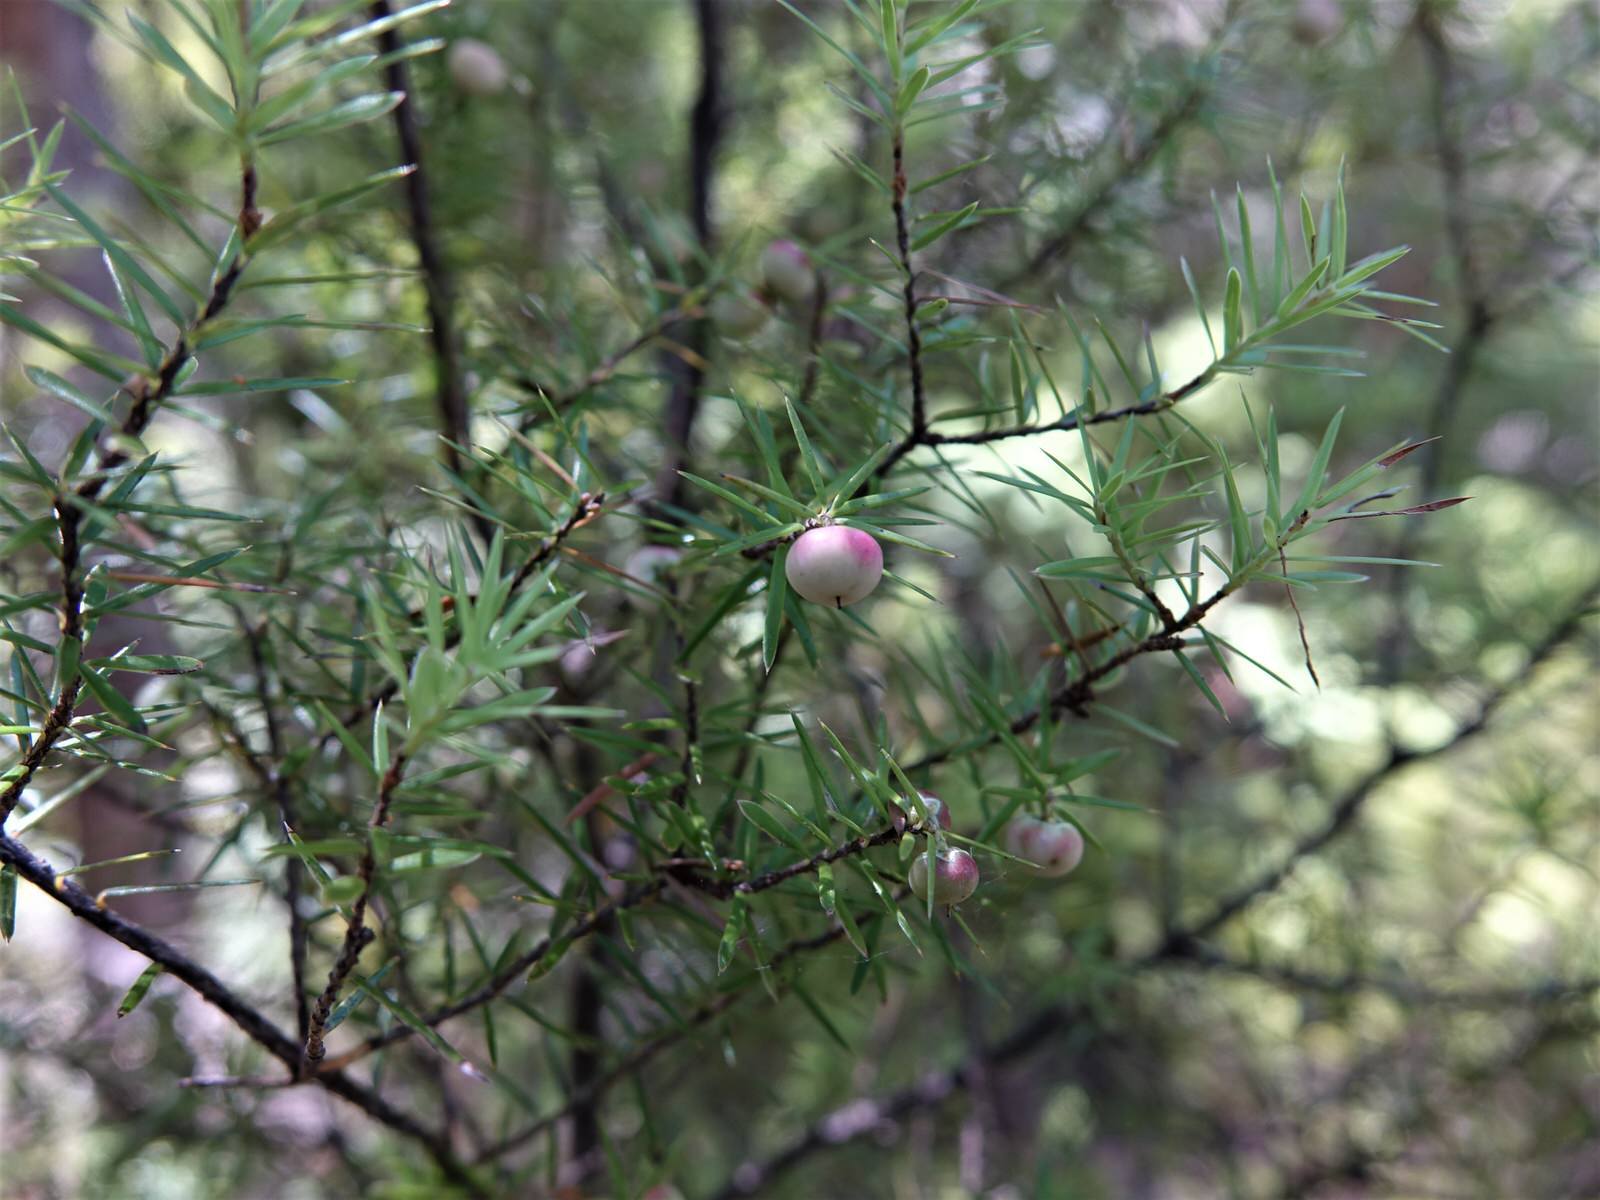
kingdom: Plantae
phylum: Tracheophyta
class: Magnoliopsida
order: Ericales
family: Ericaceae
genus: Leptecophylla
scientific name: Leptecophylla juniperina
